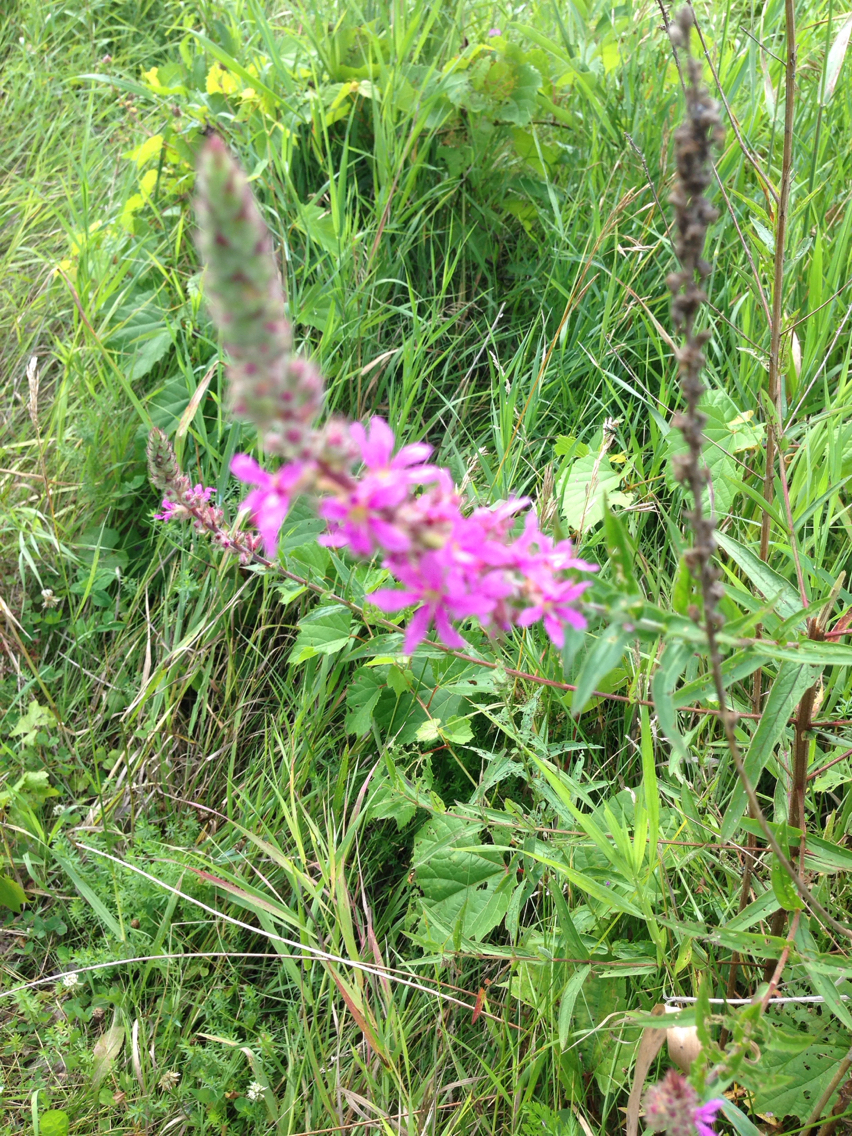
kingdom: Plantae
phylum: Tracheophyta
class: Magnoliopsida
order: Myrtales
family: Lythraceae
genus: Lythrum
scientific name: Lythrum salicaria
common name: Purple loosestrife
